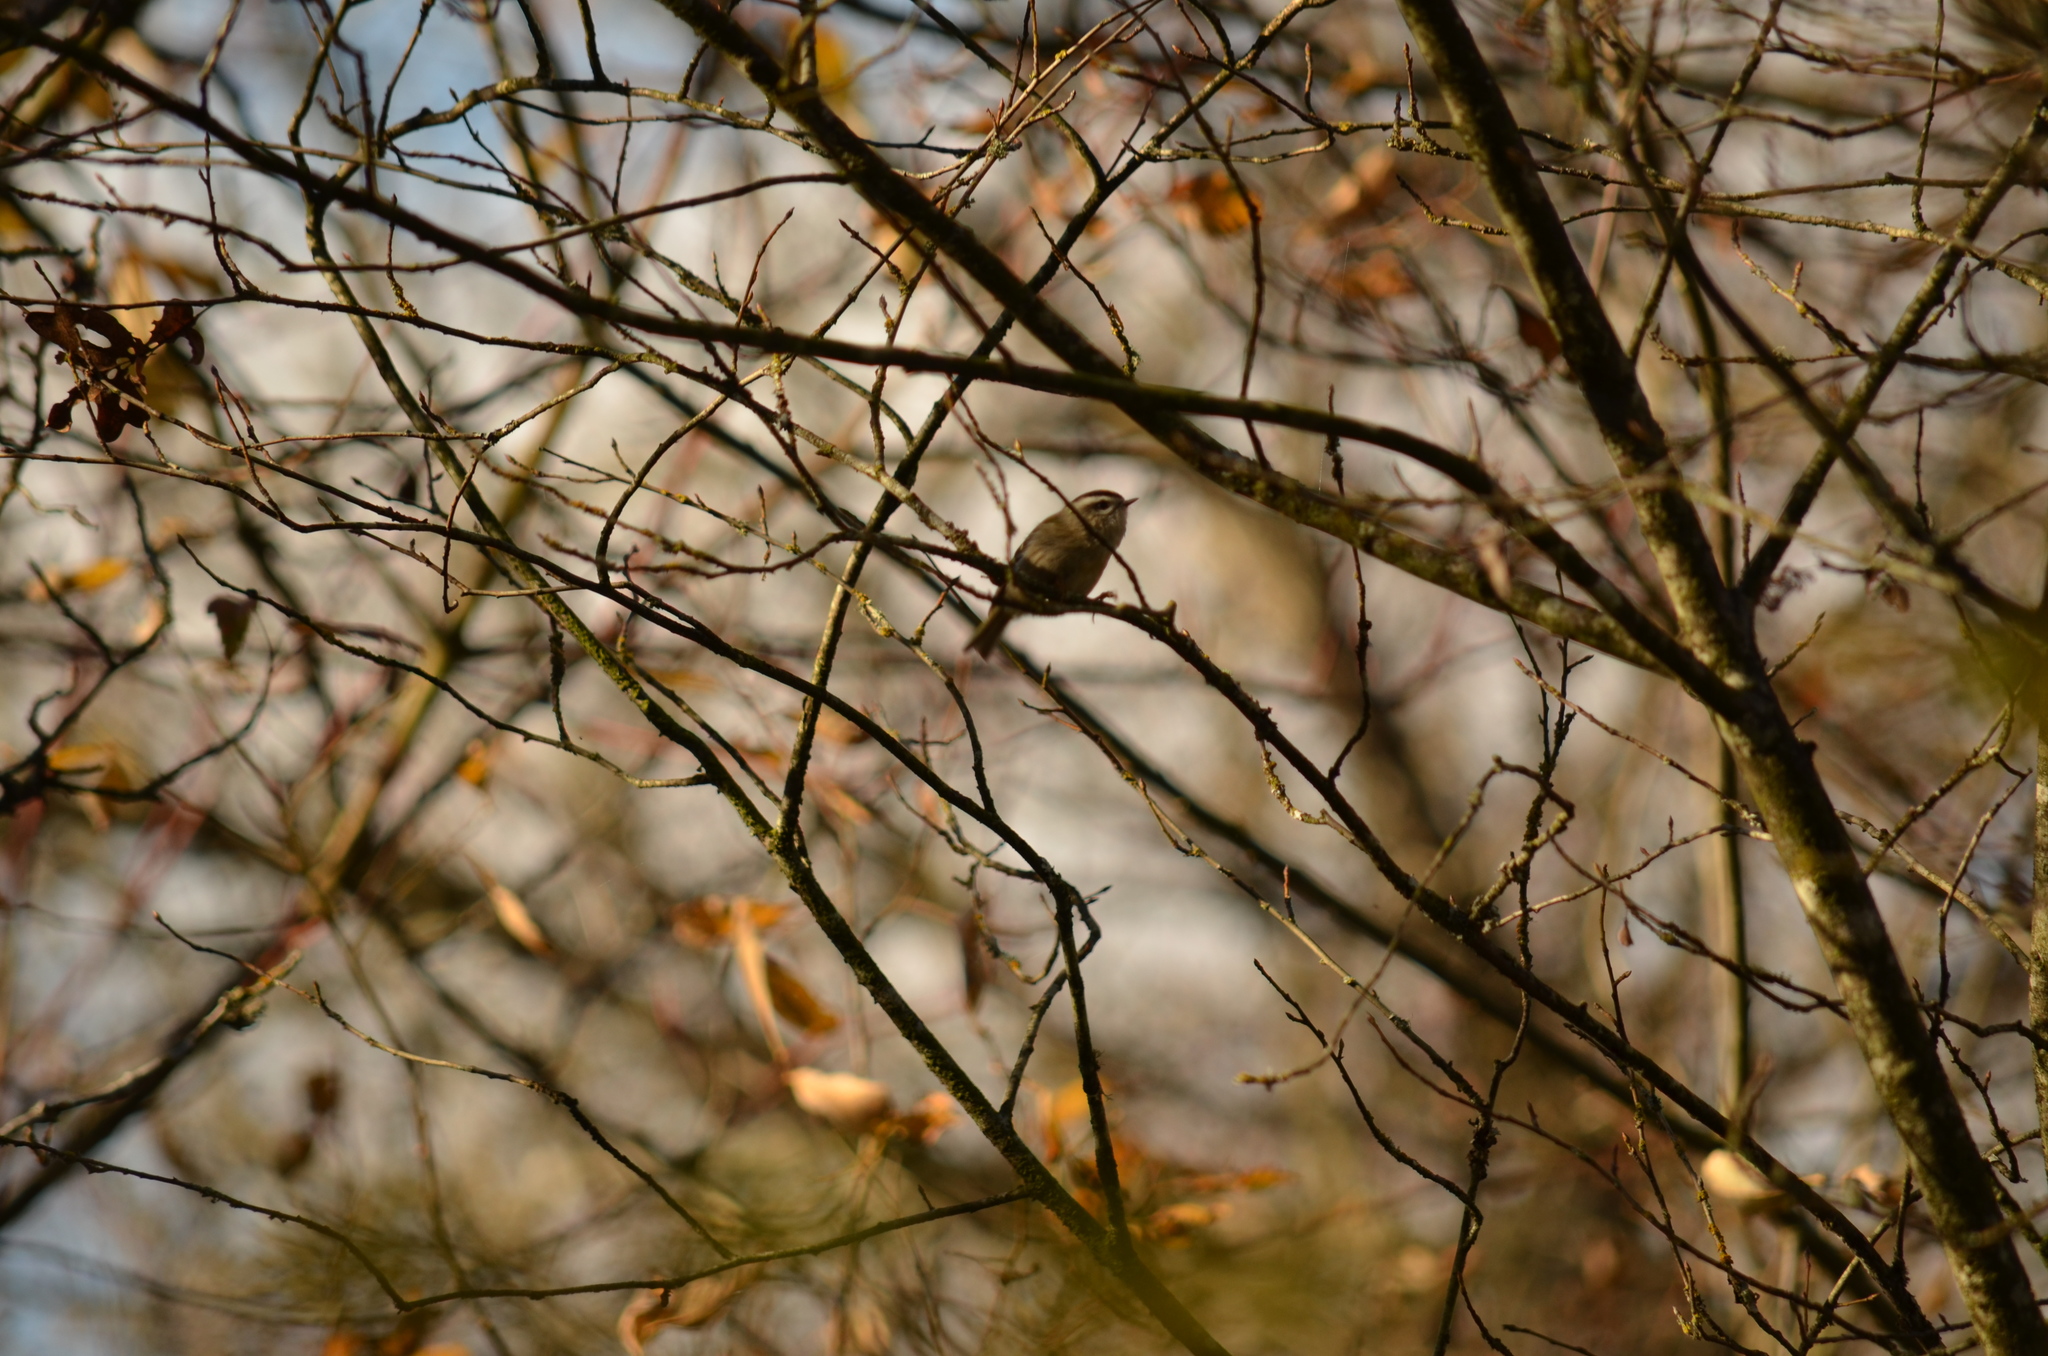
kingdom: Animalia
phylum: Chordata
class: Aves
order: Passeriformes
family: Regulidae
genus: Regulus
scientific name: Regulus satrapa
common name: Golden-crowned kinglet
